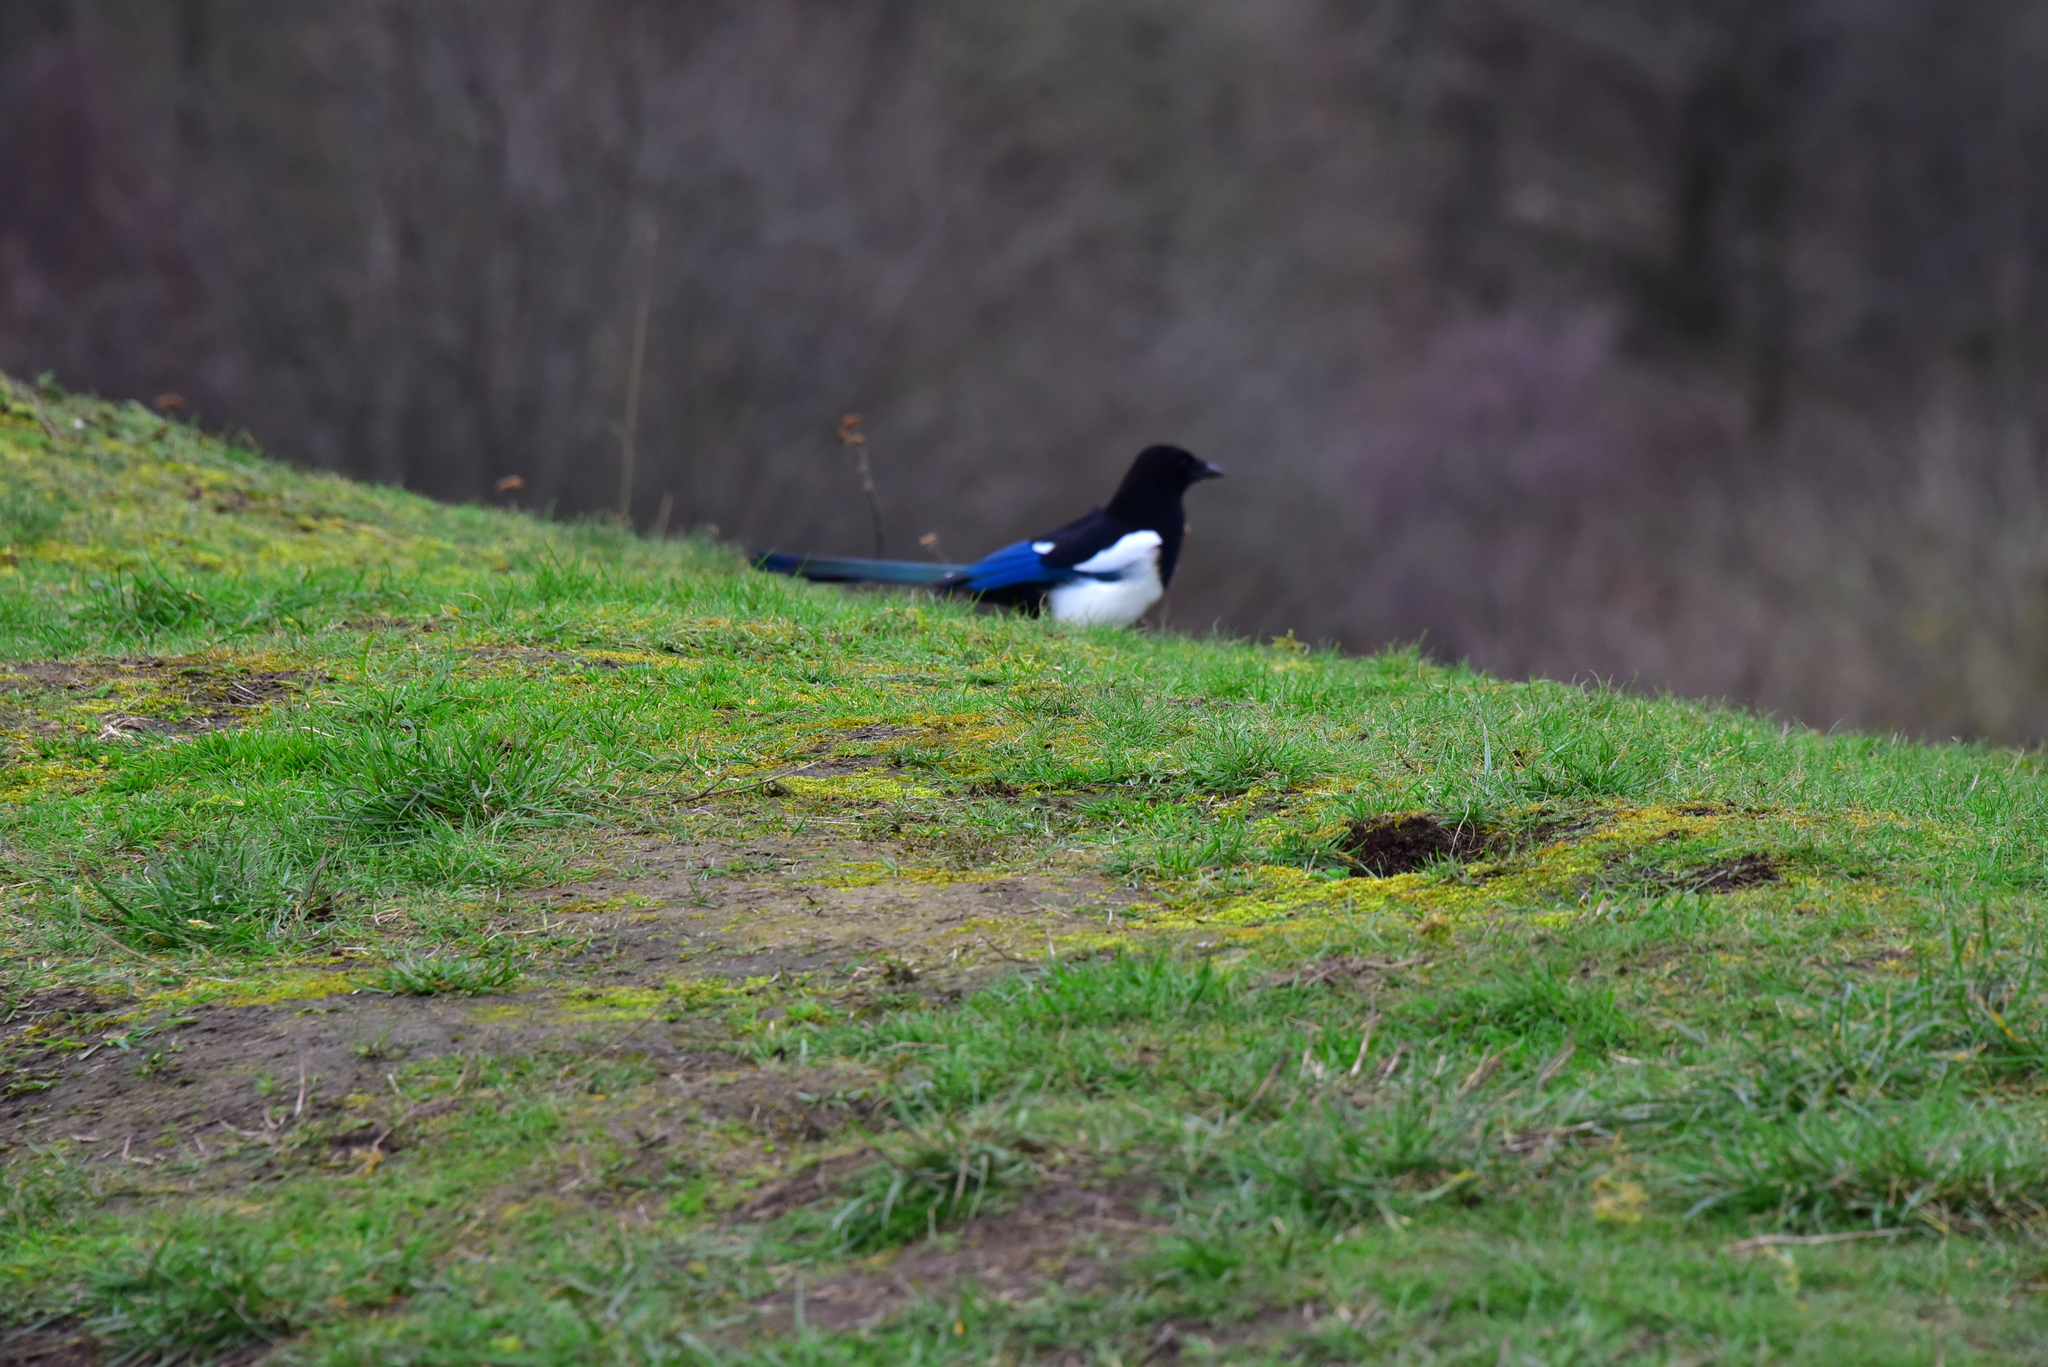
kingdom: Animalia
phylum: Chordata
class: Aves
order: Passeriformes
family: Corvidae
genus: Pica
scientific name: Pica pica
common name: Eurasian magpie
